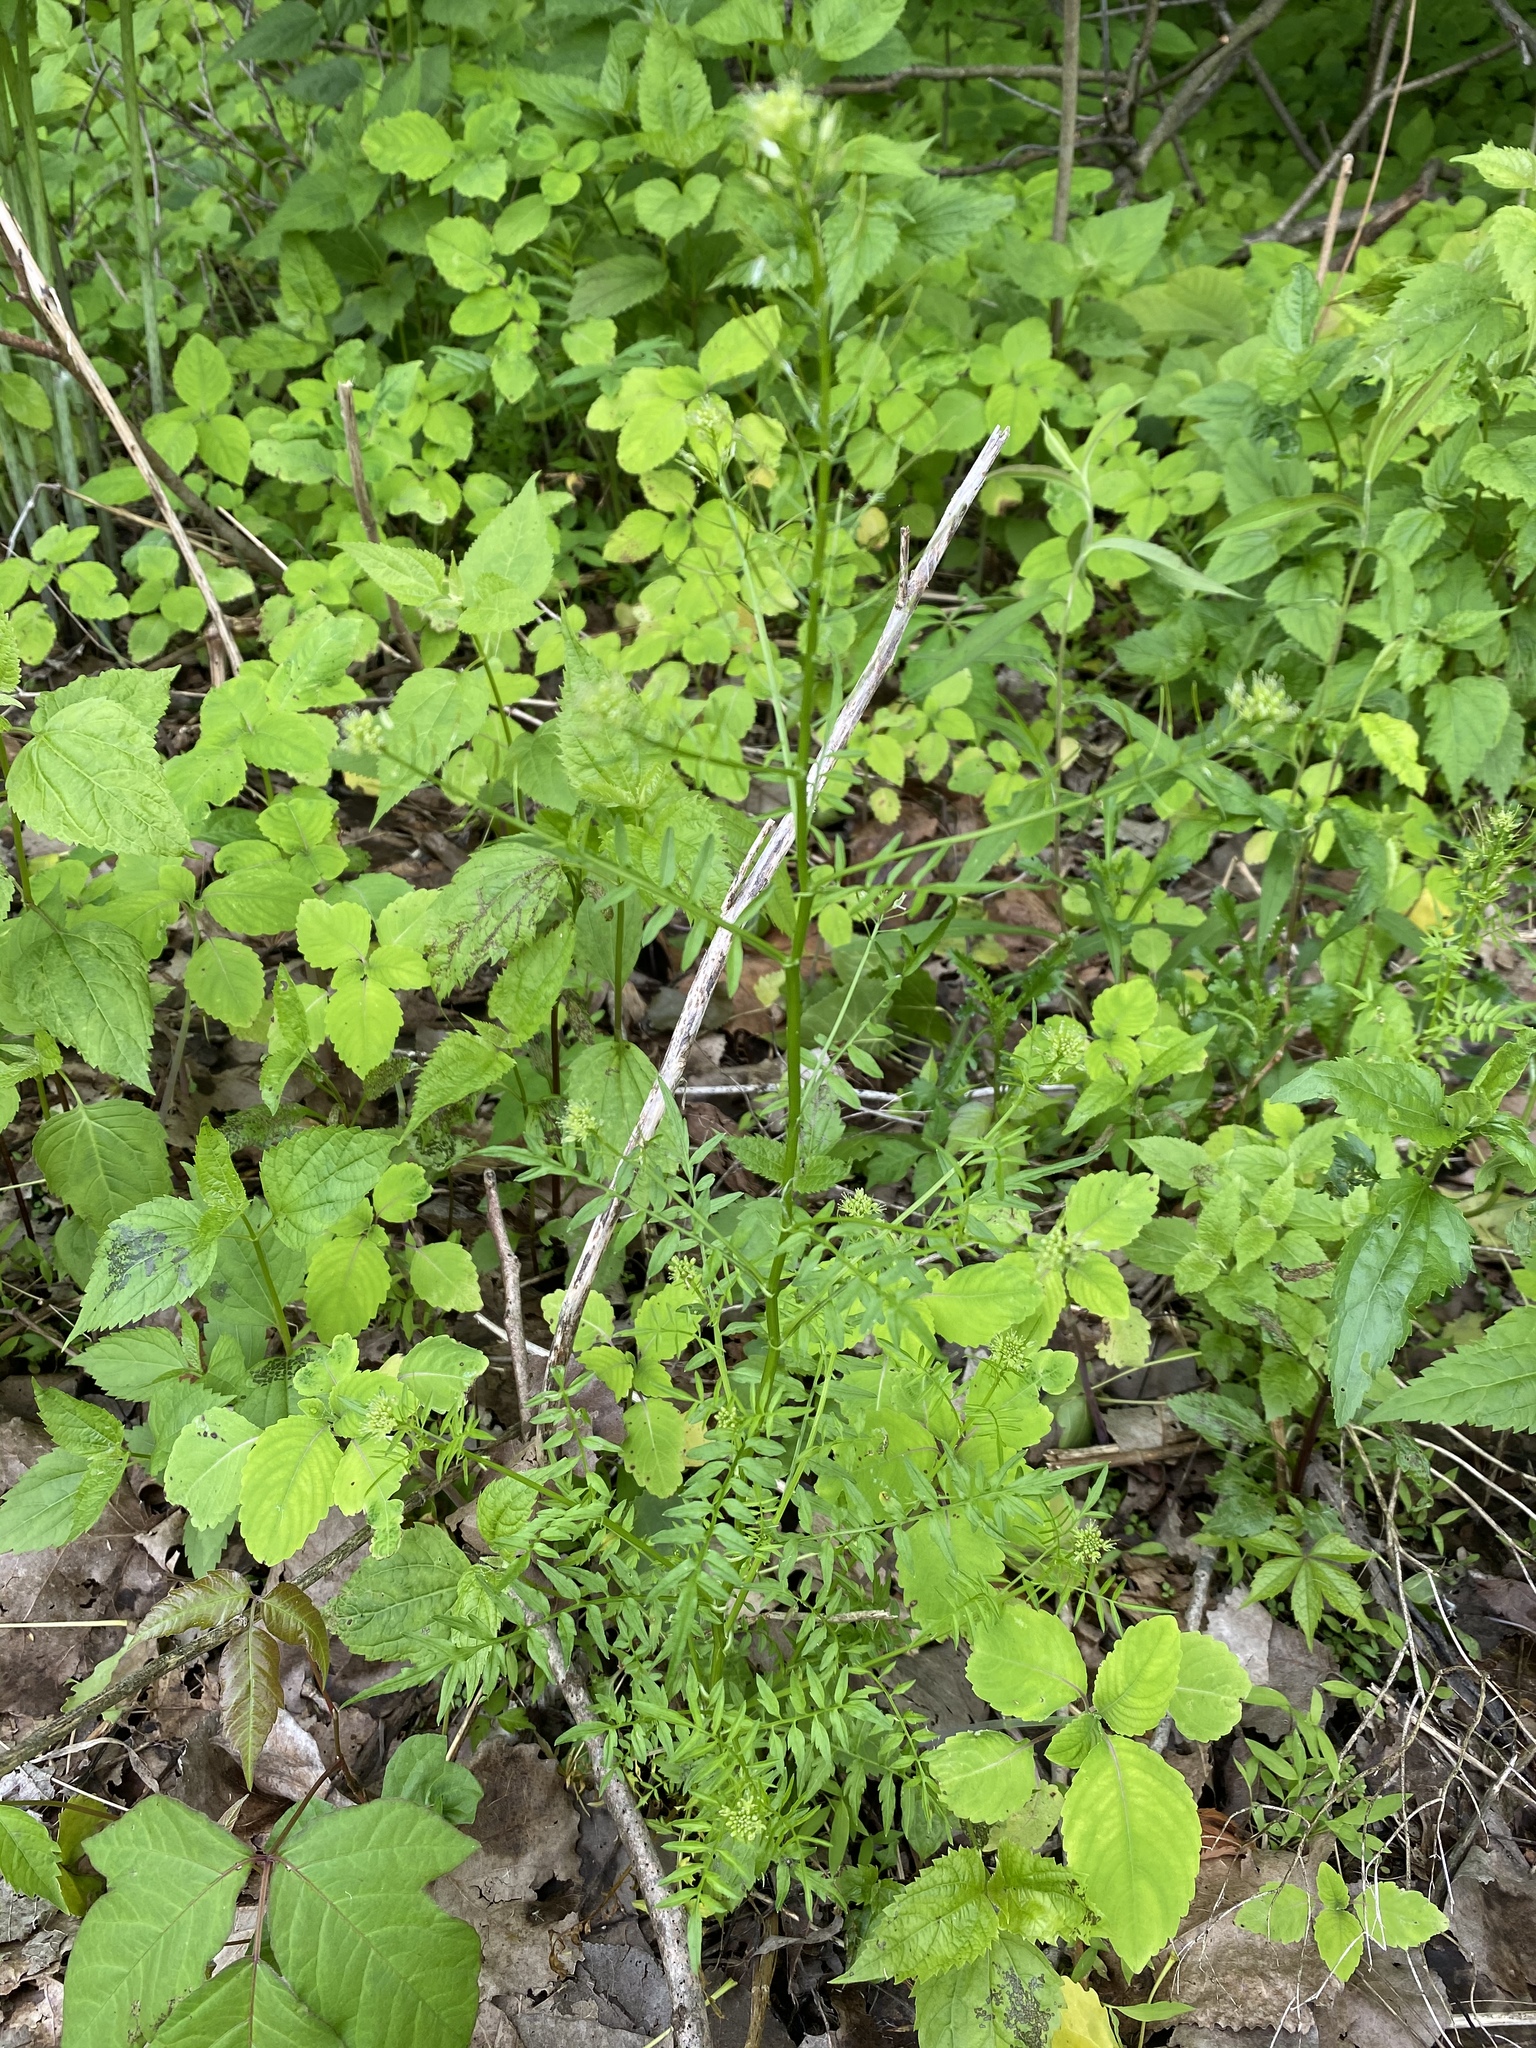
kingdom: Plantae
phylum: Tracheophyta
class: Magnoliopsida
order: Brassicales
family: Brassicaceae
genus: Cardamine
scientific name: Cardamine impatiens
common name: Narrow-leaved bitter-cress
